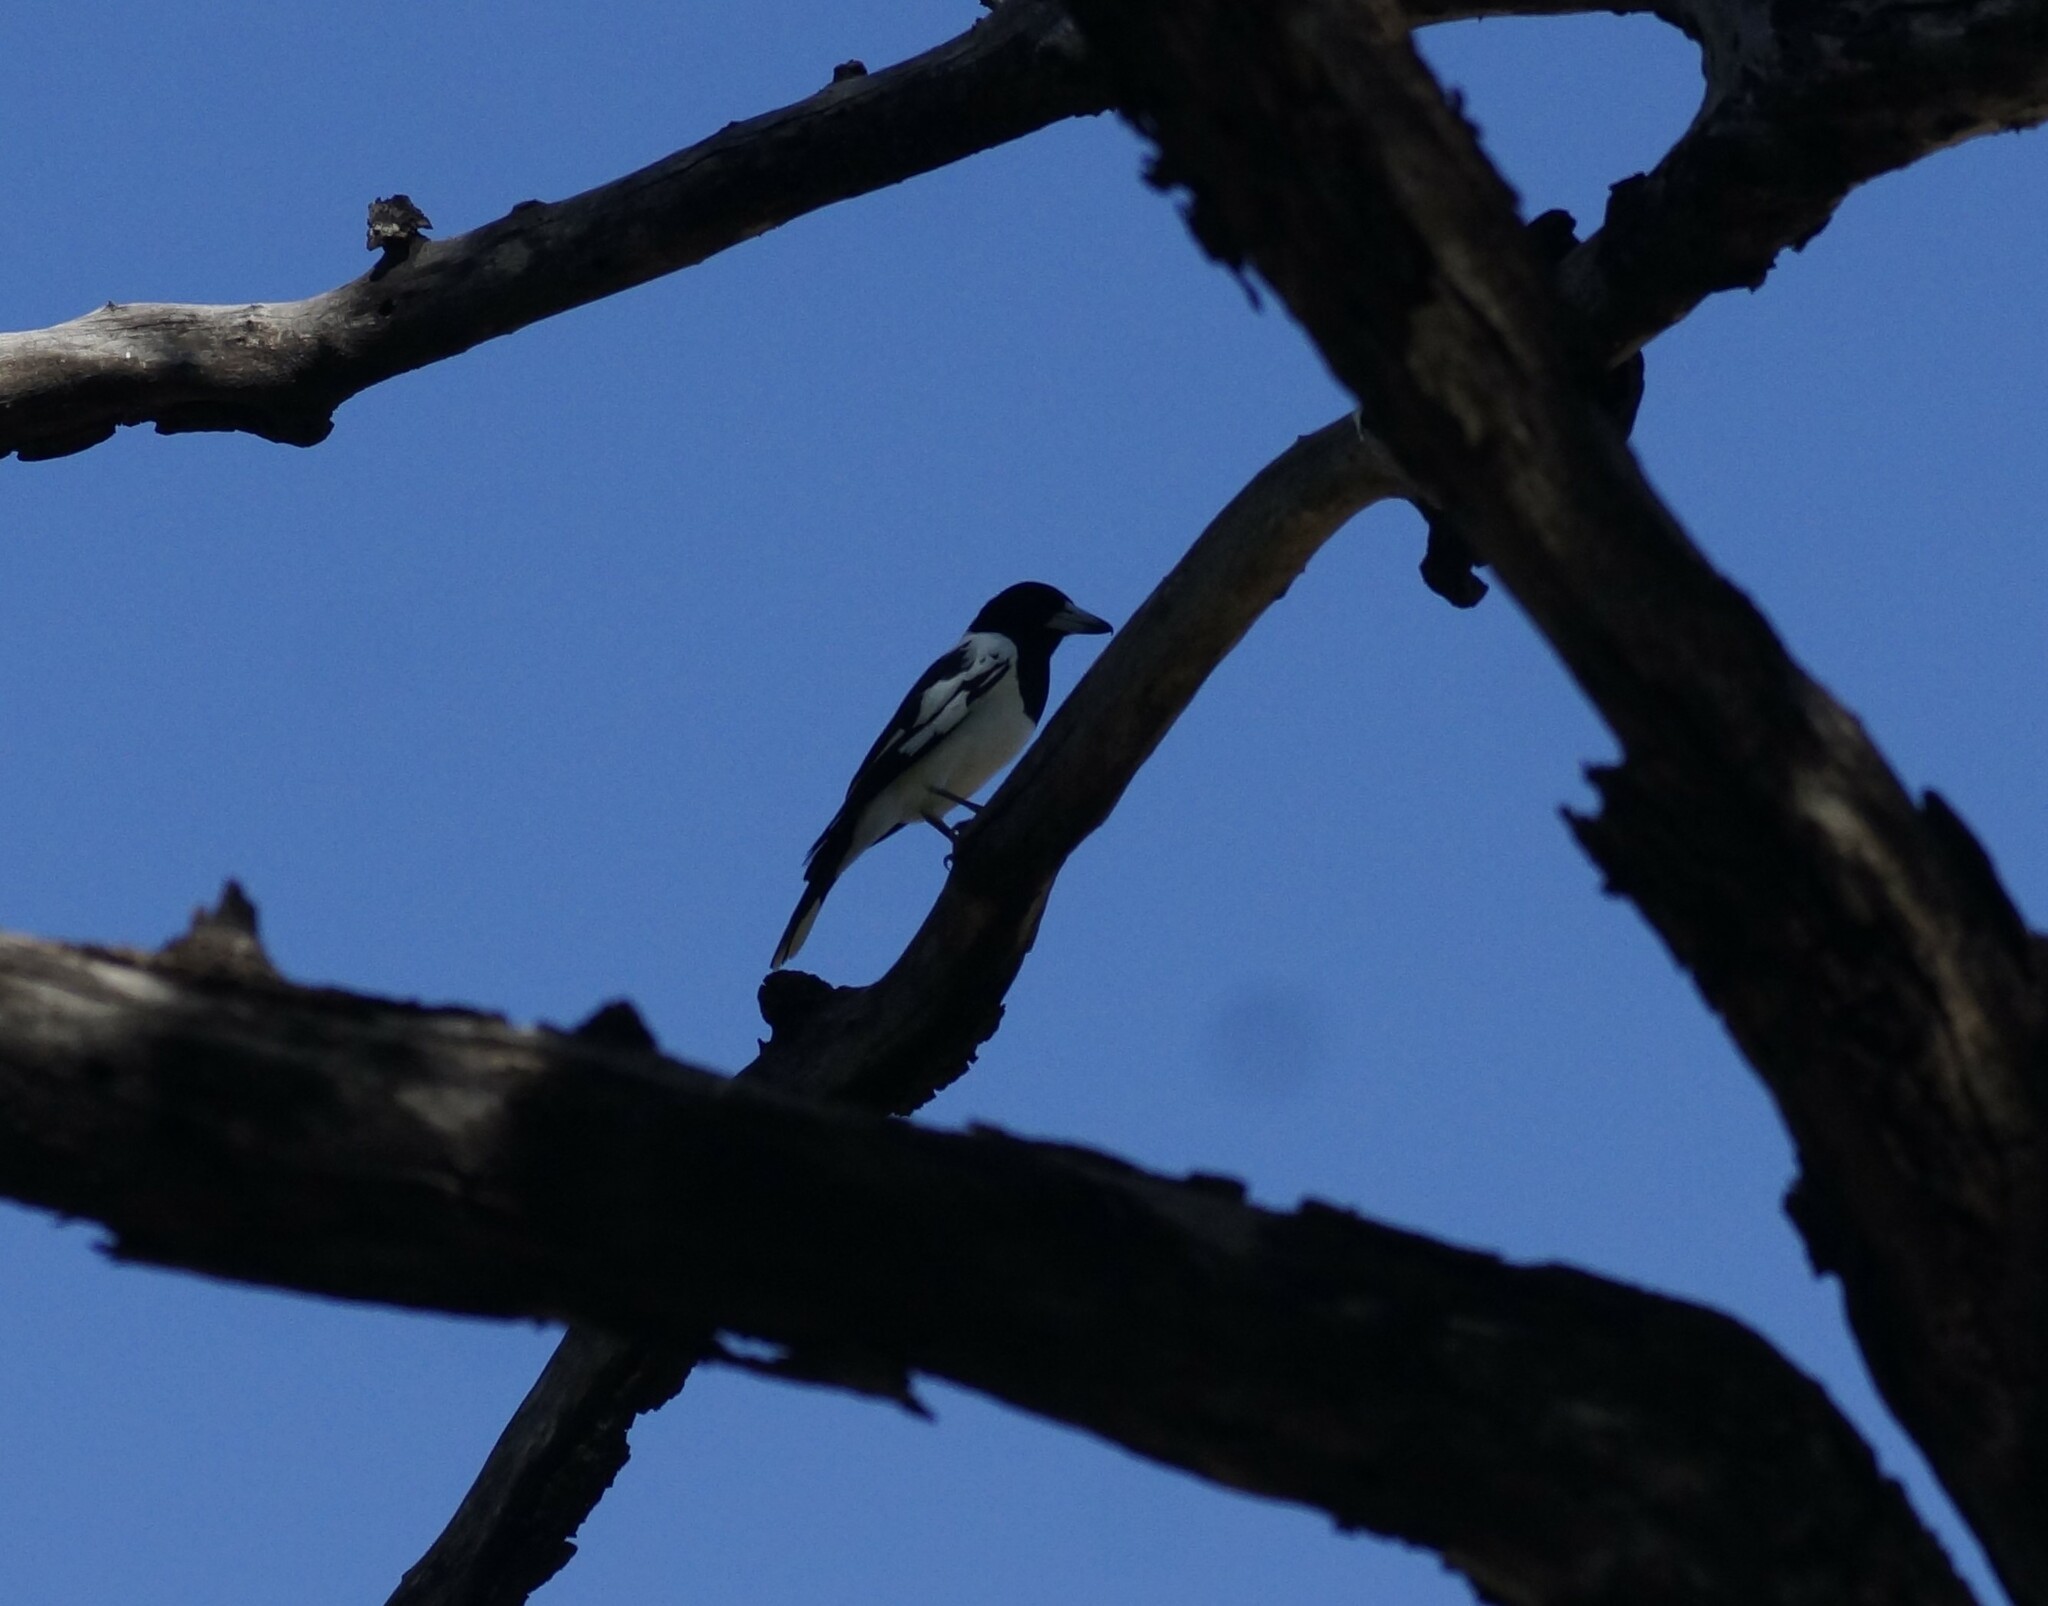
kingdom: Animalia
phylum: Chordata
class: Aves
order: Passeriformes
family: Cracticidae
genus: Cracticus
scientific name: Cracticus nigrogularis
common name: Pied butcherbird
